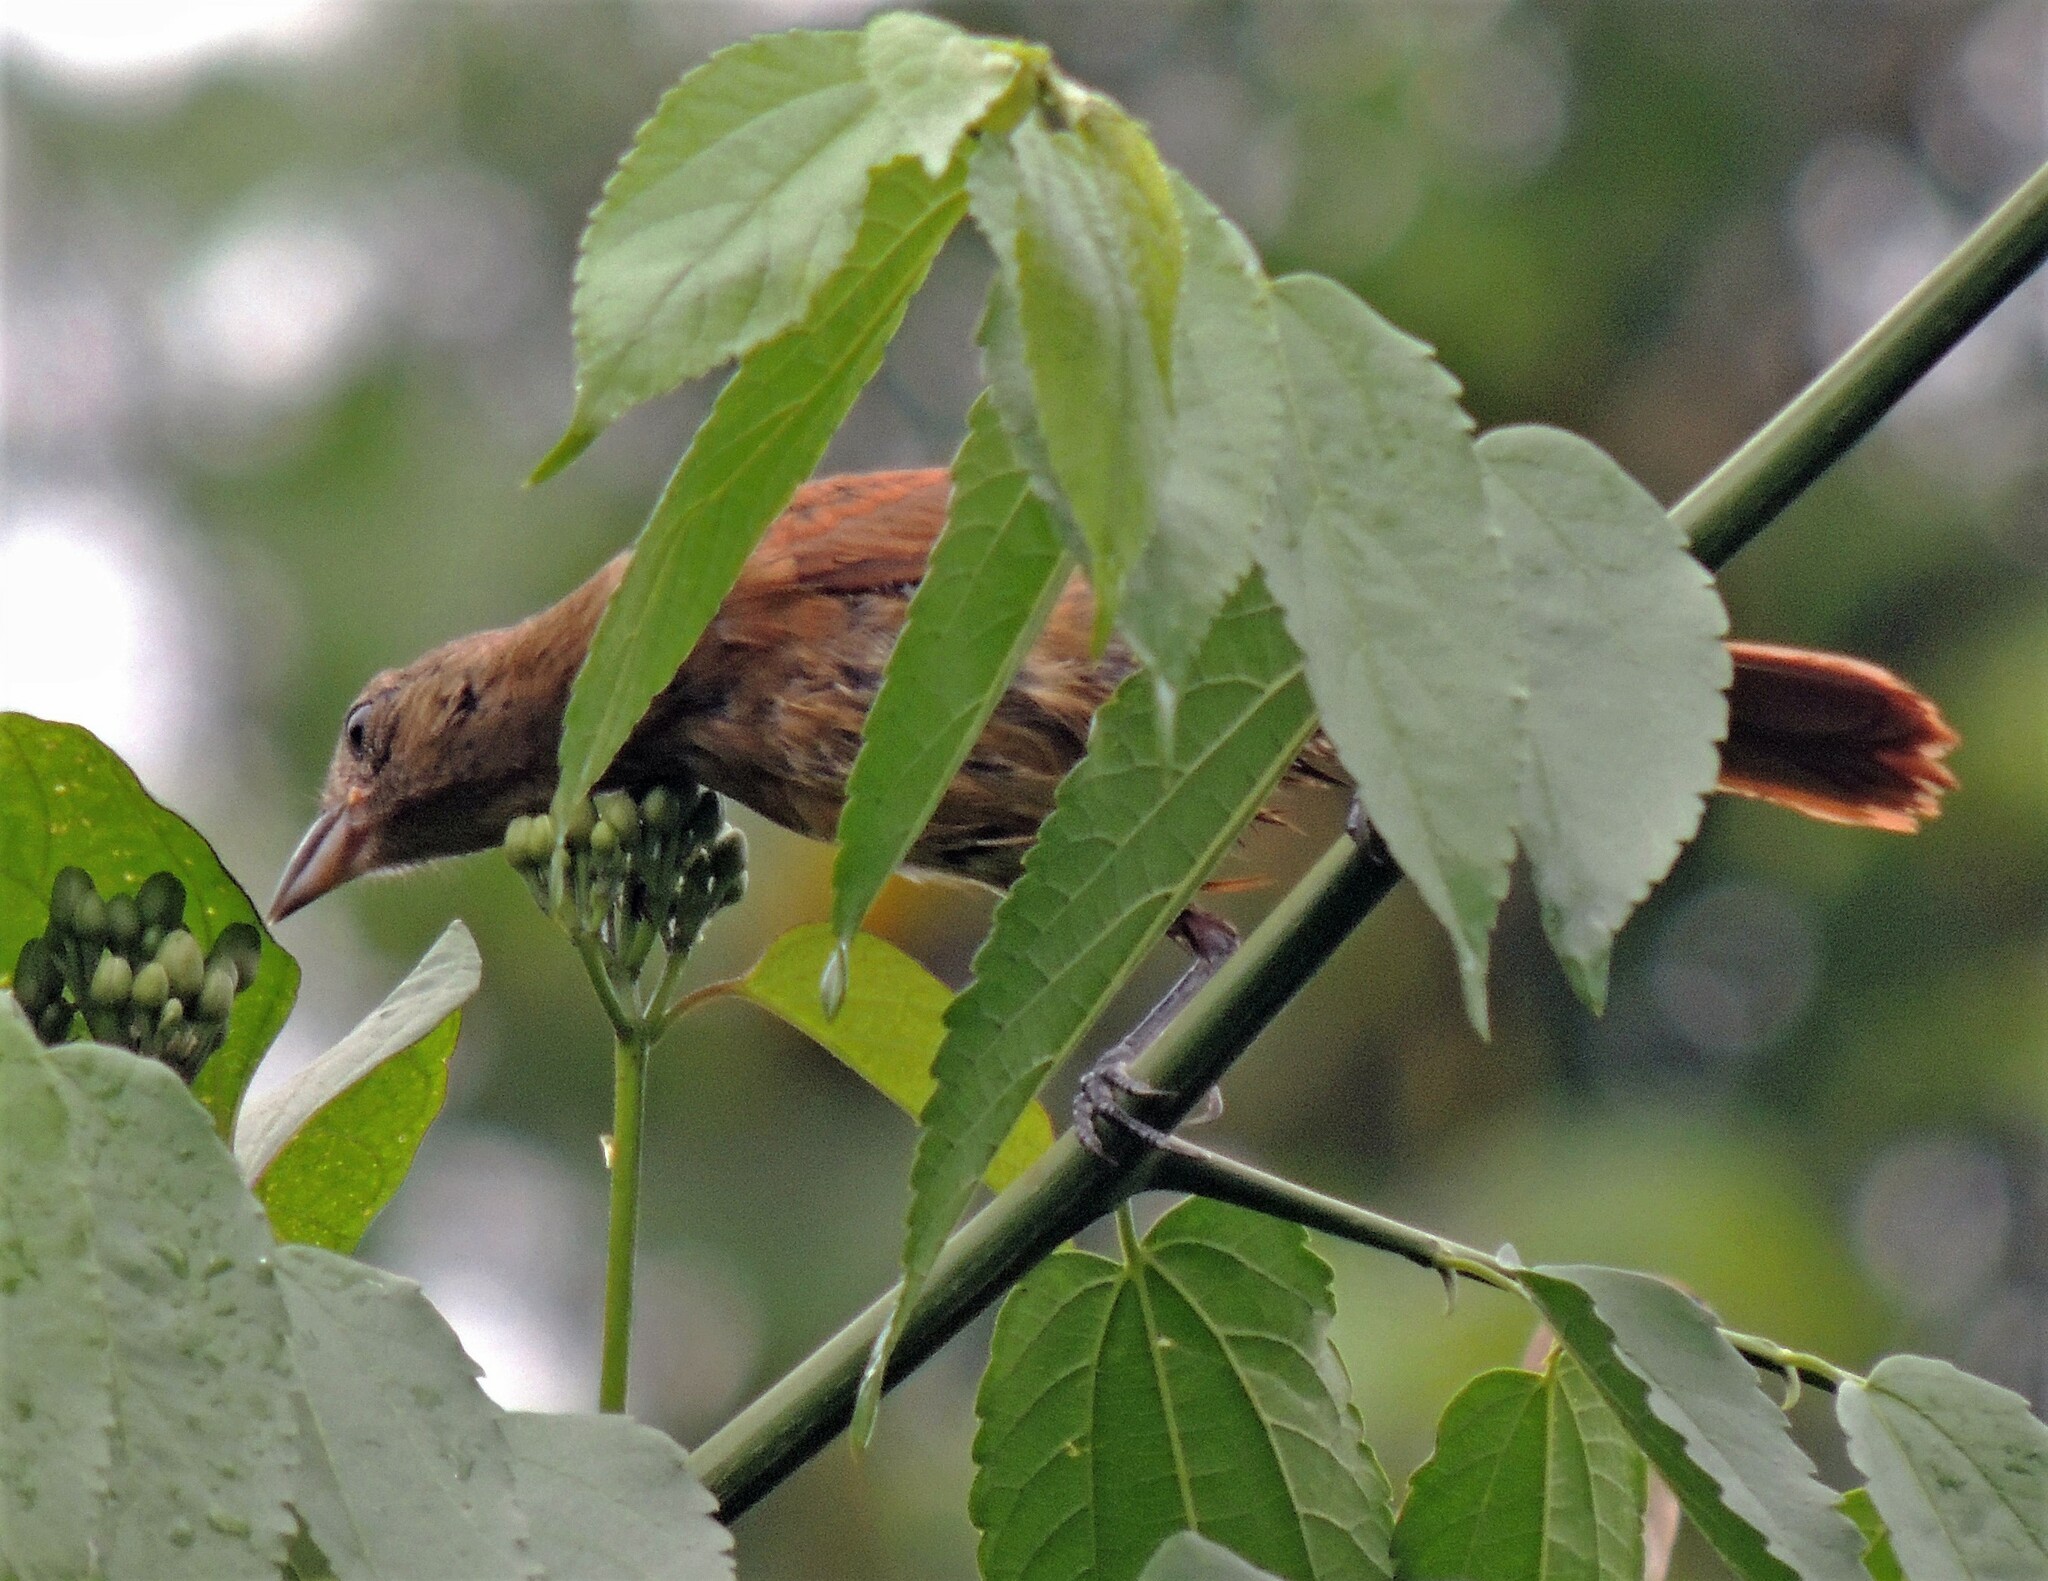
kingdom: Animalia
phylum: Chordata
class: Aves
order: Passeriformes
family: Thraupidae
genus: Tachyphonus
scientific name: Tachyphonus coronatus
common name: Ruby-crowned tanager
